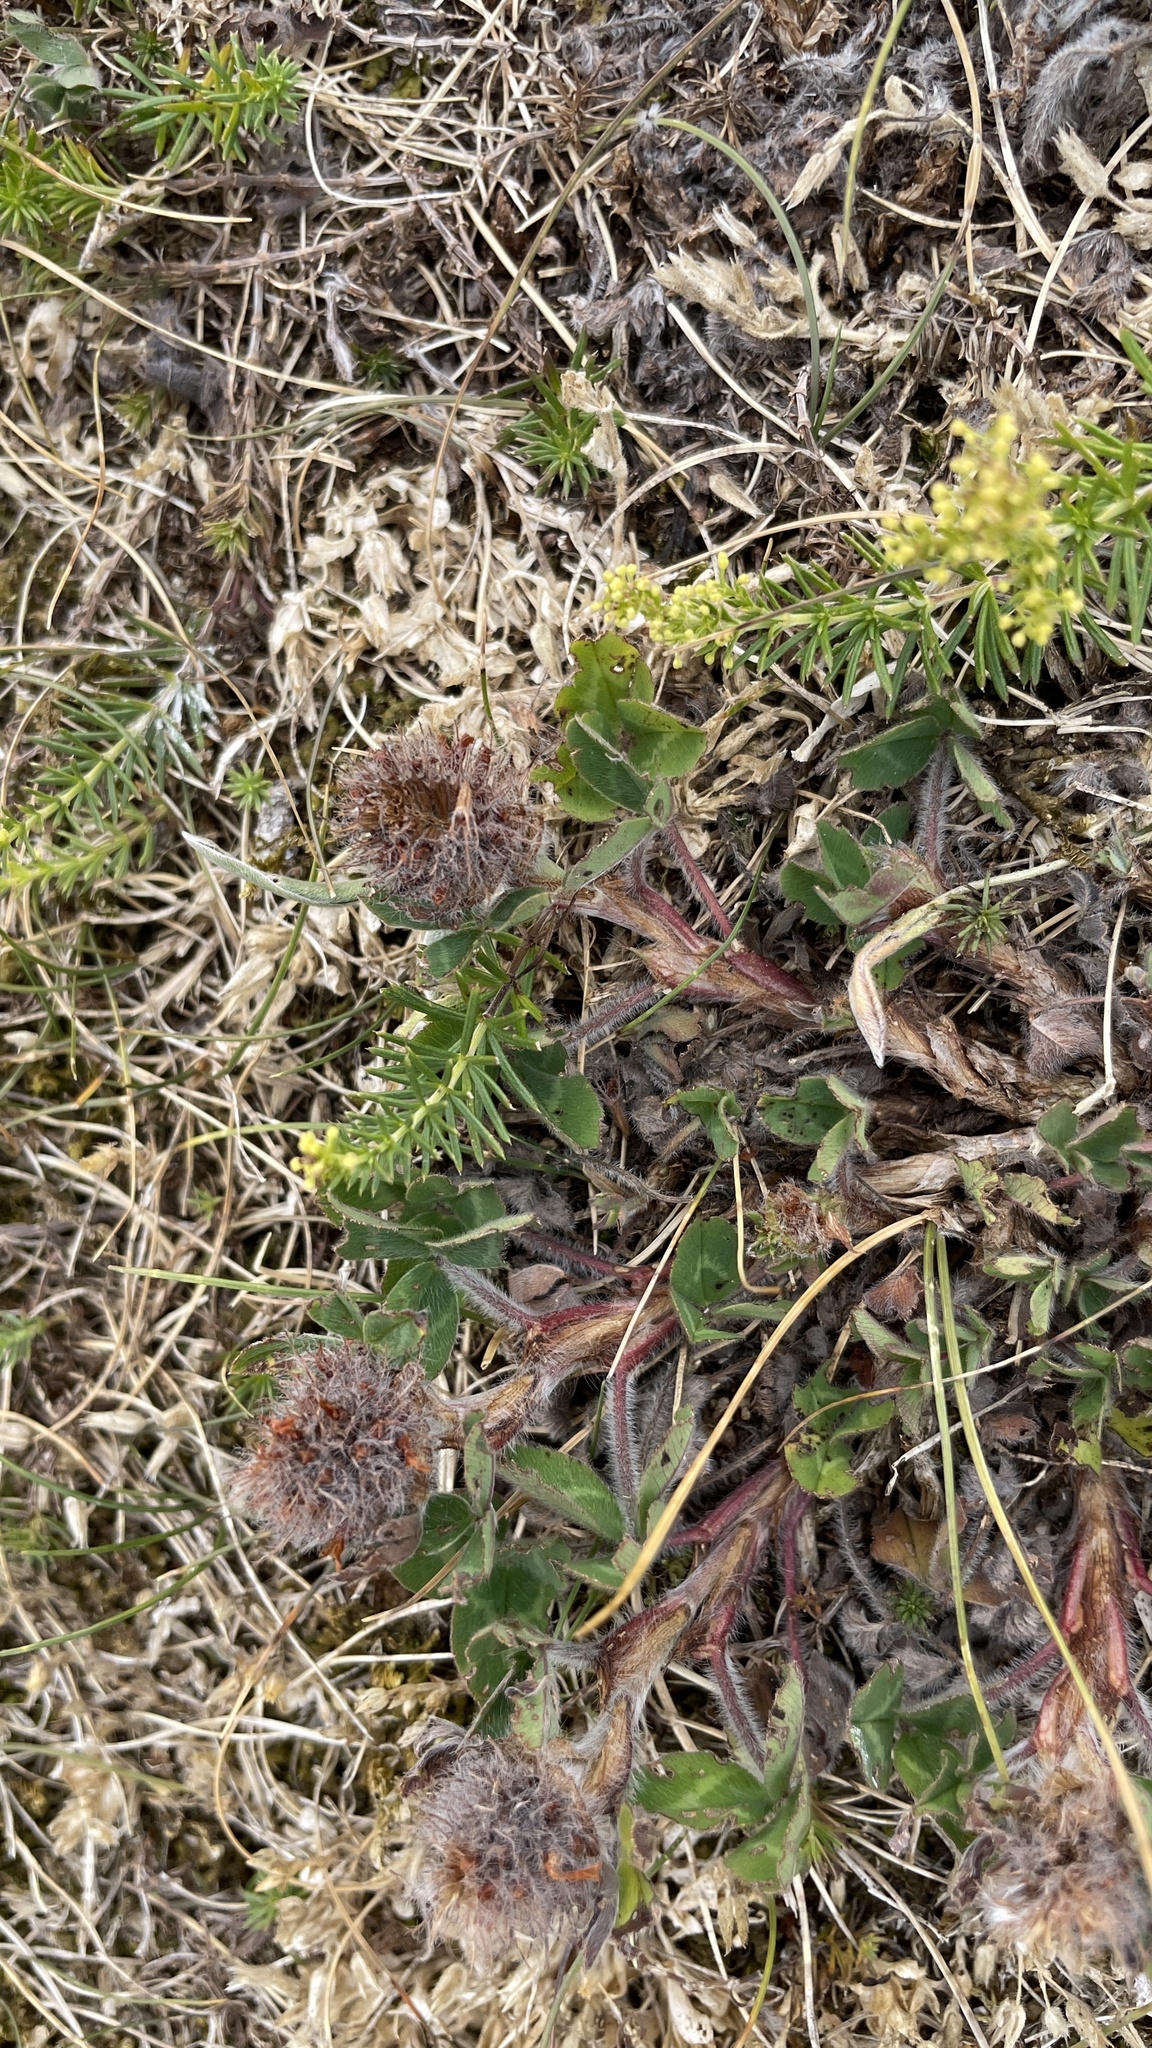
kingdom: Plantae
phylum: Tracheophyta
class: Magnoliopsida
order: Fabales
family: Fabaceae
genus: Trifolium
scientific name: Trifolium pratense
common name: Red clover
